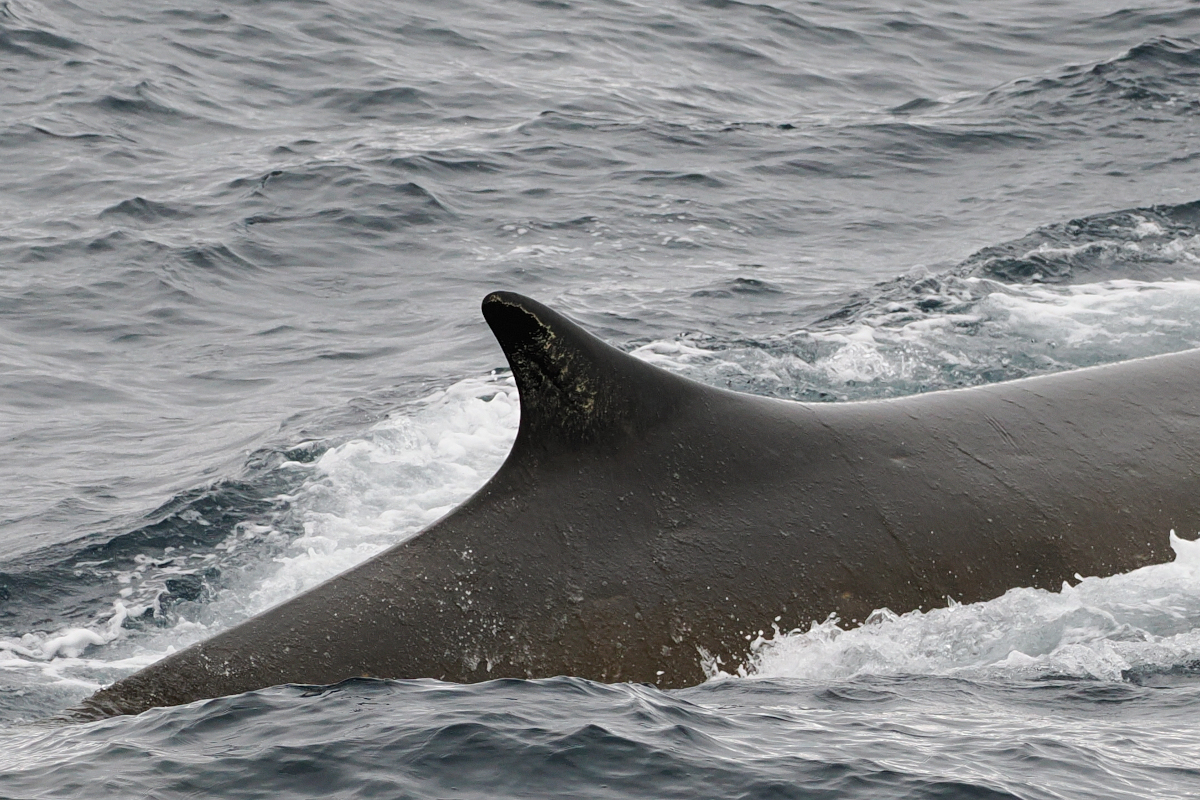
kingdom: Animalia
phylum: Chordata
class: Mammalia
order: Cetacea
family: Balaenopteridae
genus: Balaenoptera
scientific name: Balaenoptera physalus
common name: Fin whale
